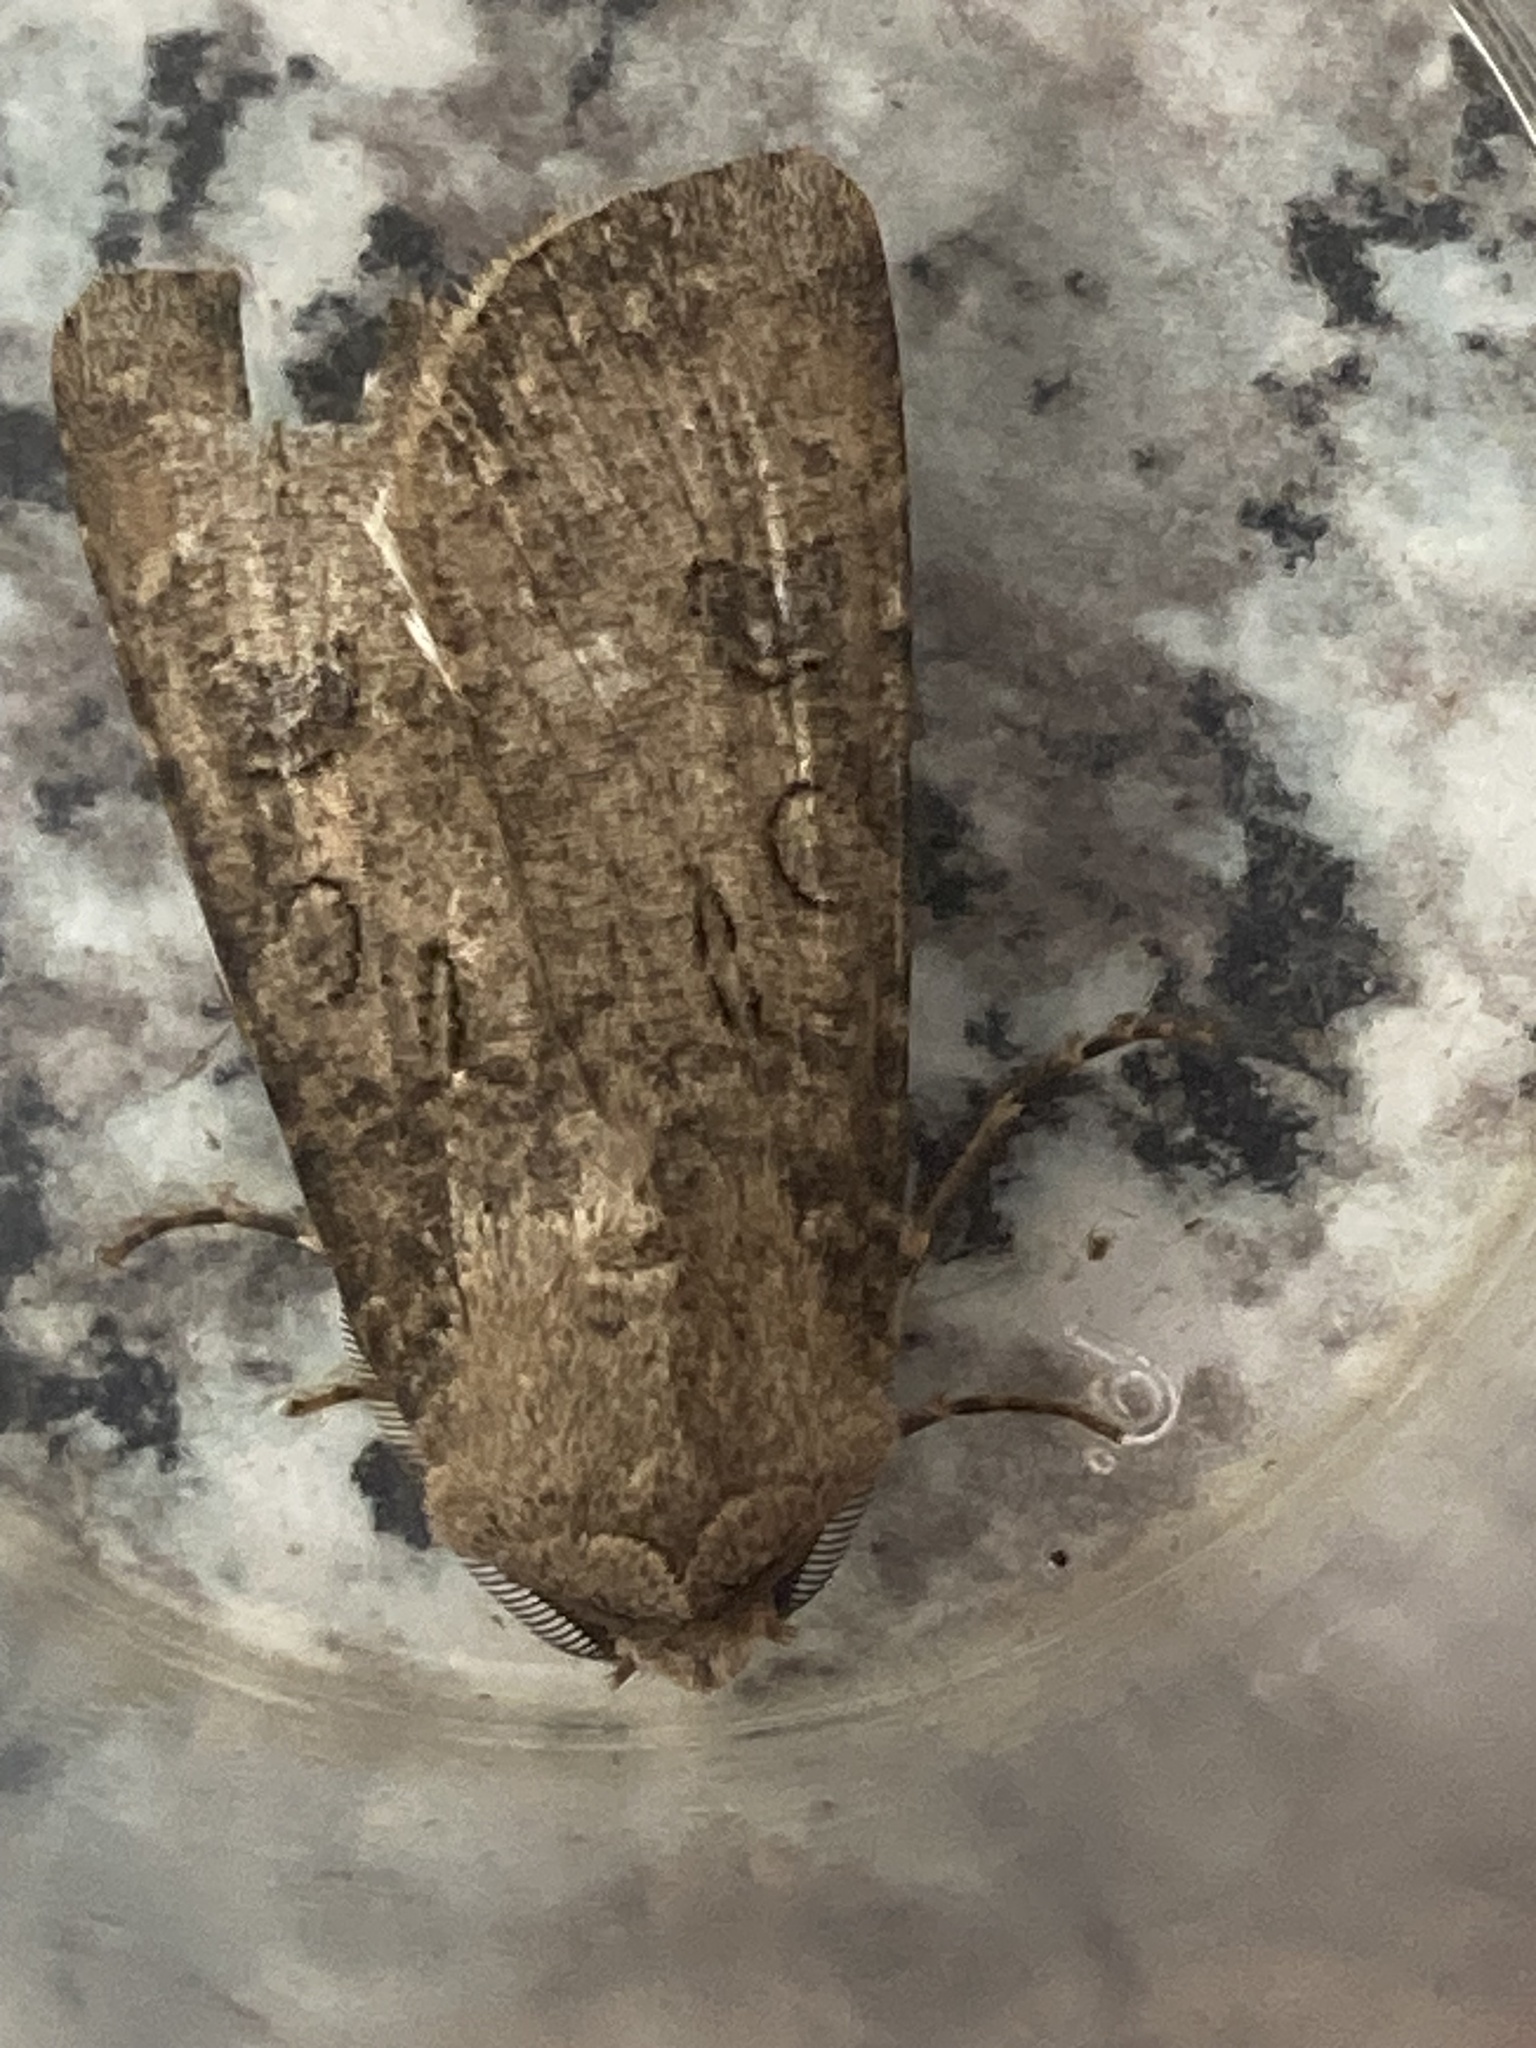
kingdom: Animalia
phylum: Arthropoda
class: Insecta
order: Lepidoptera
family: Noctuidae
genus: Agrotis
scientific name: Agrotis segetum
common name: Turnip moth
